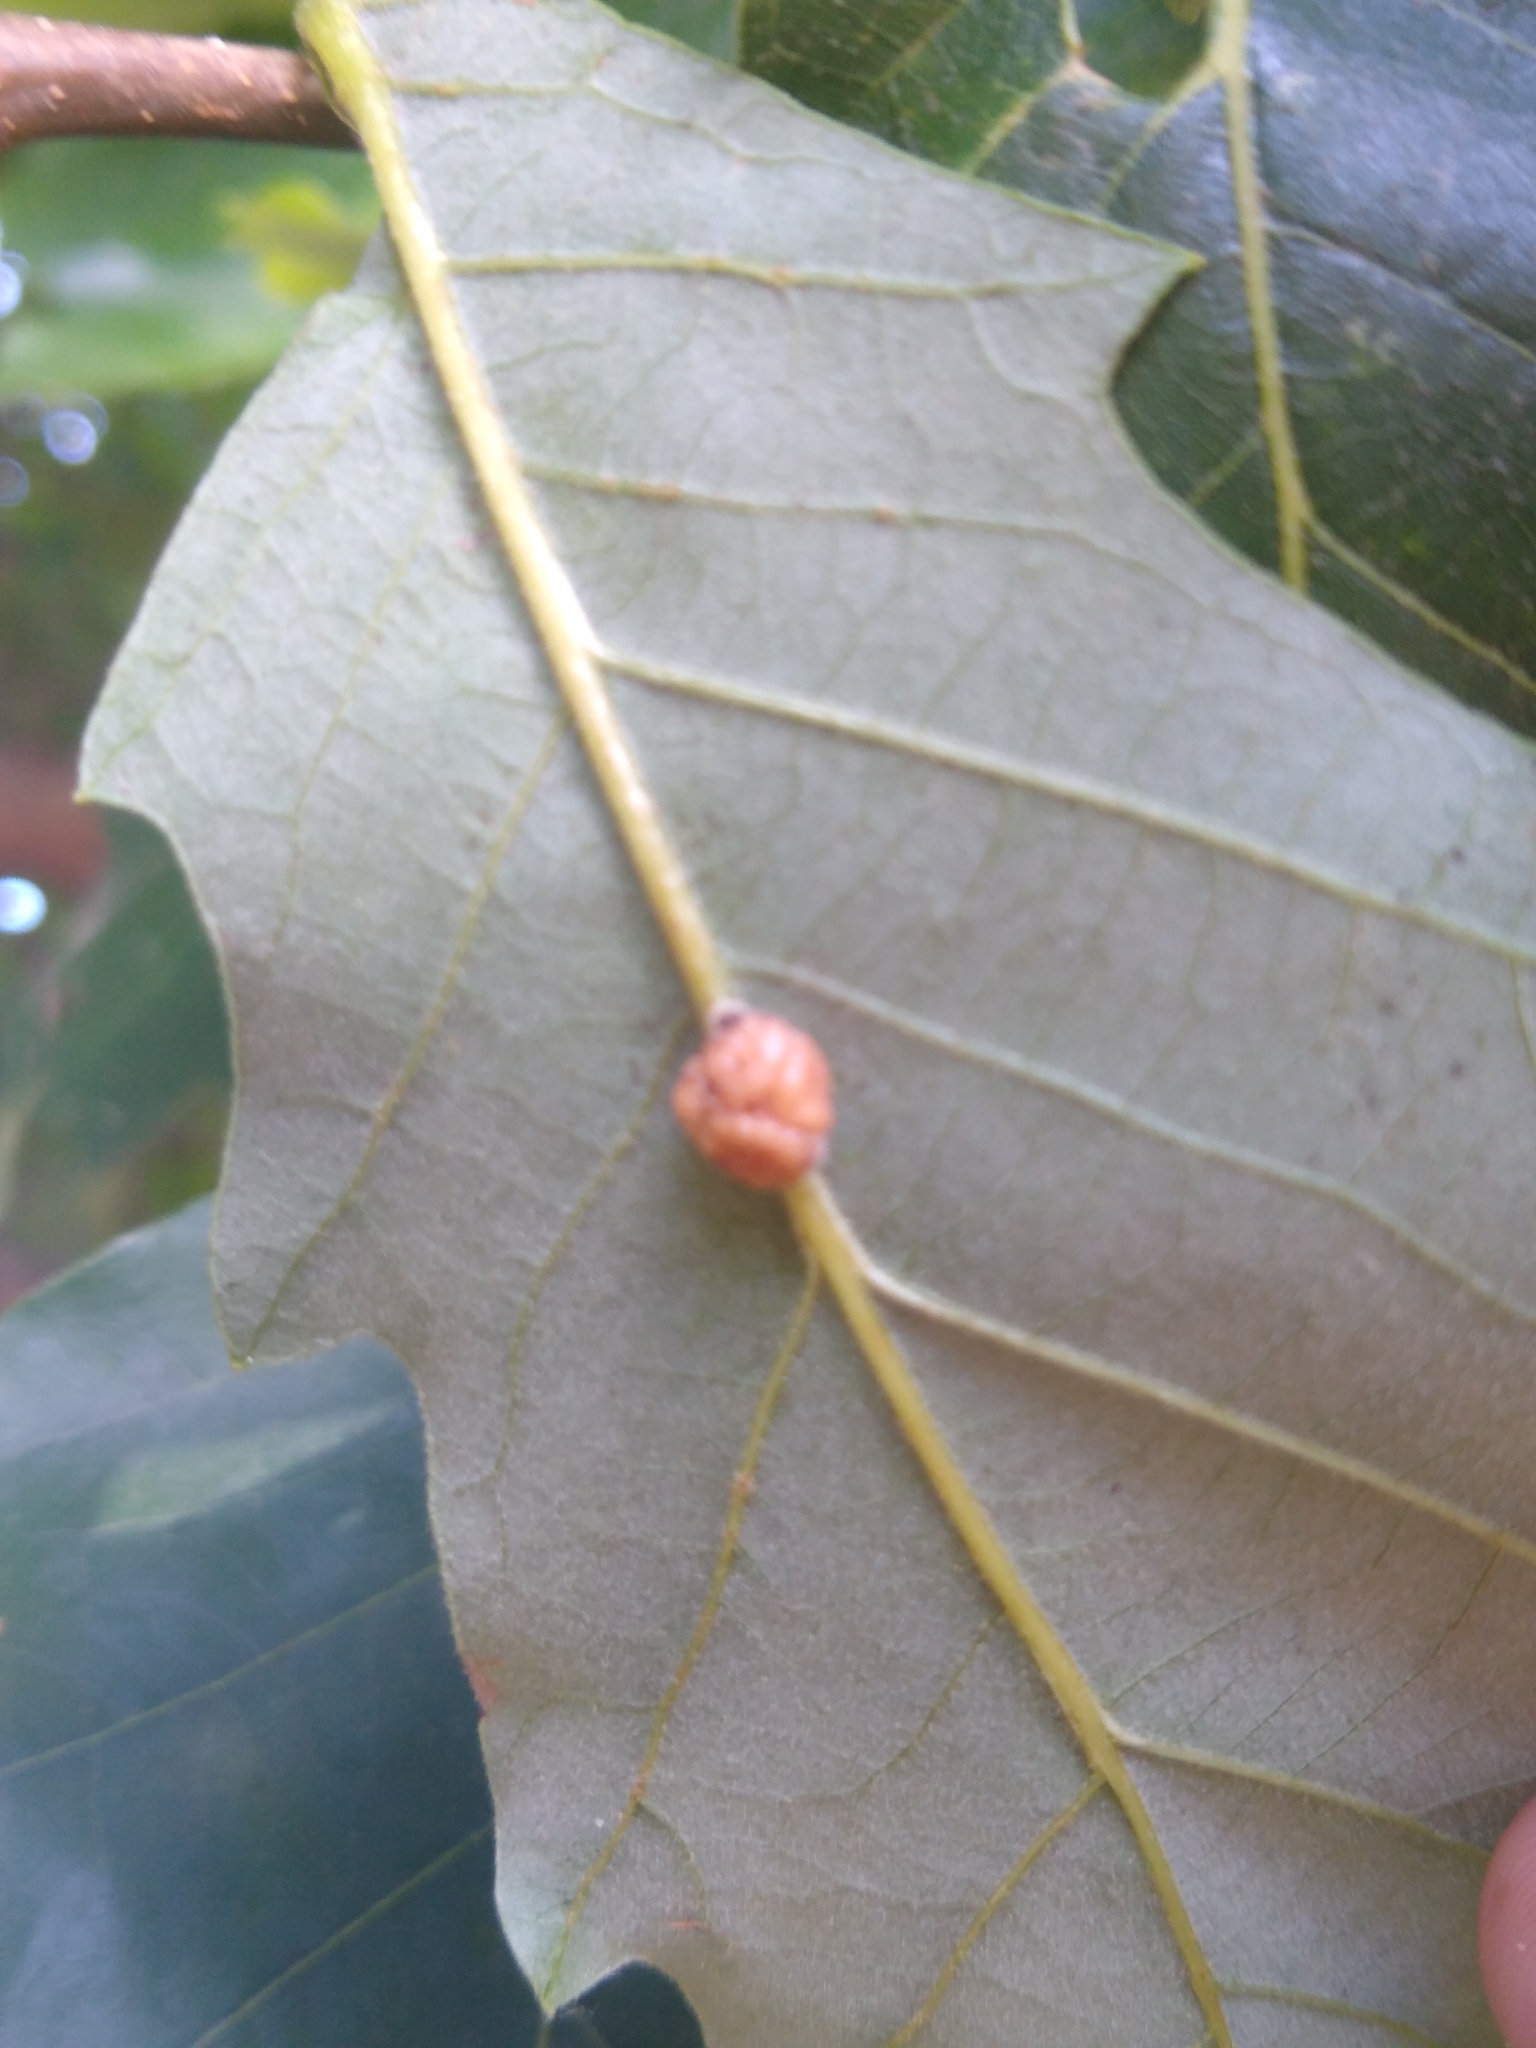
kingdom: Animalia
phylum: Arthropoda
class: Insecta
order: Hymenoptera
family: Cynipidae
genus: Andricus
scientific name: Andricus
